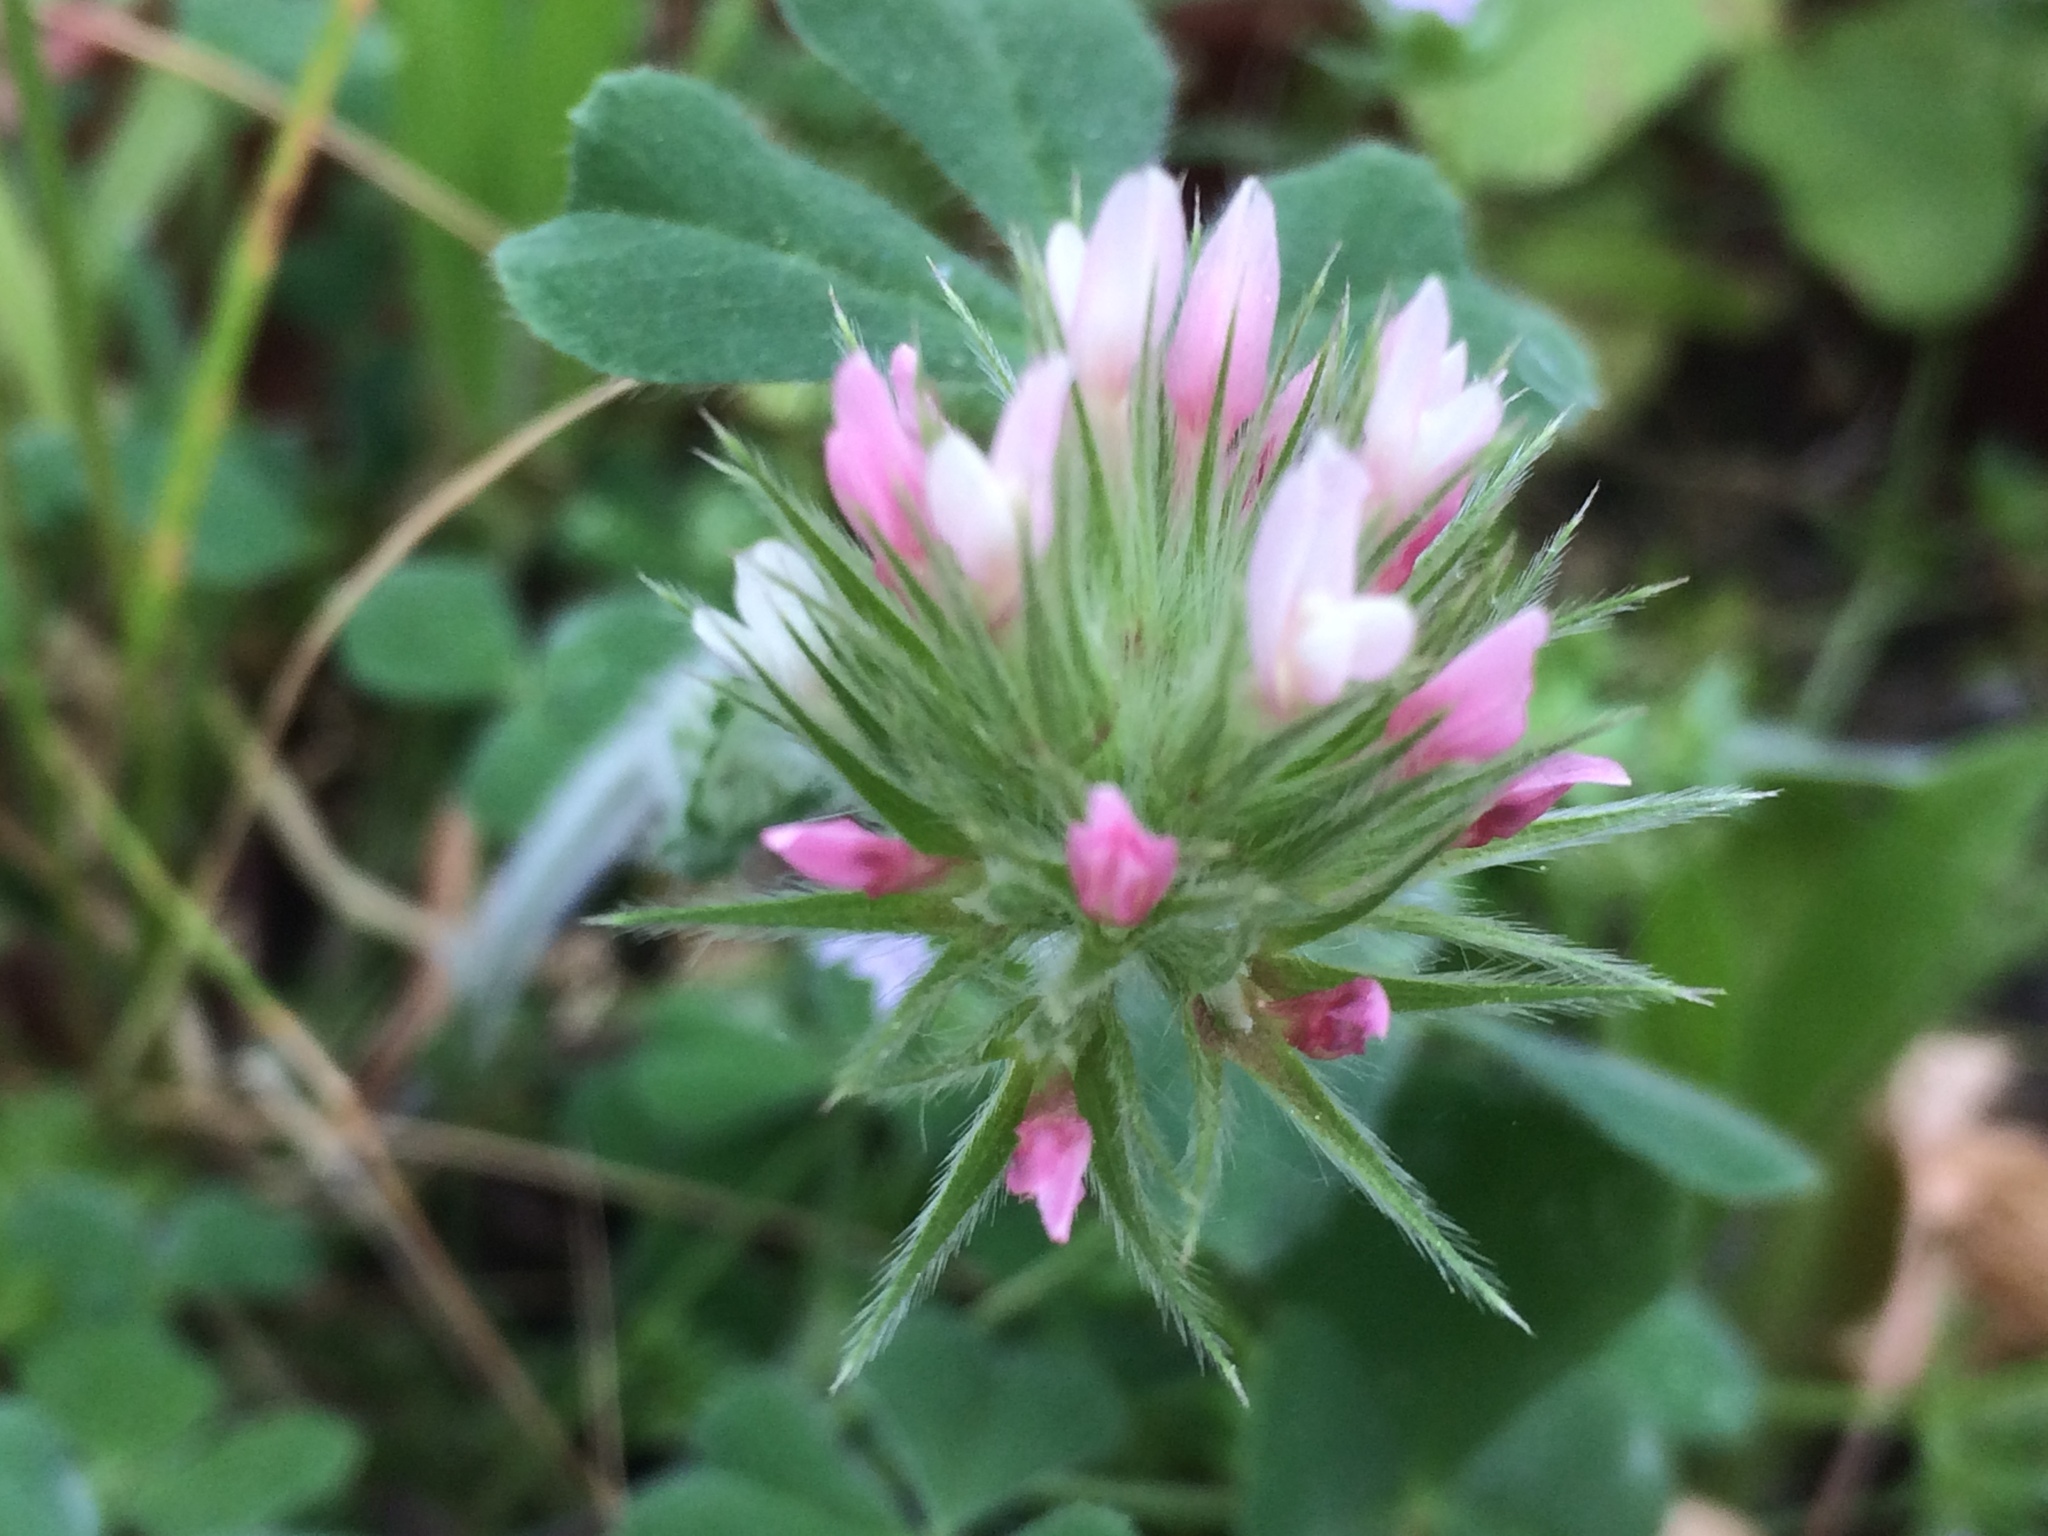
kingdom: Plantae
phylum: Tracheophyta
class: Magnoliopsida
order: Fabales
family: Fabaceae
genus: Trifolium
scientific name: Trifolium stellatum
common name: Starry clover
